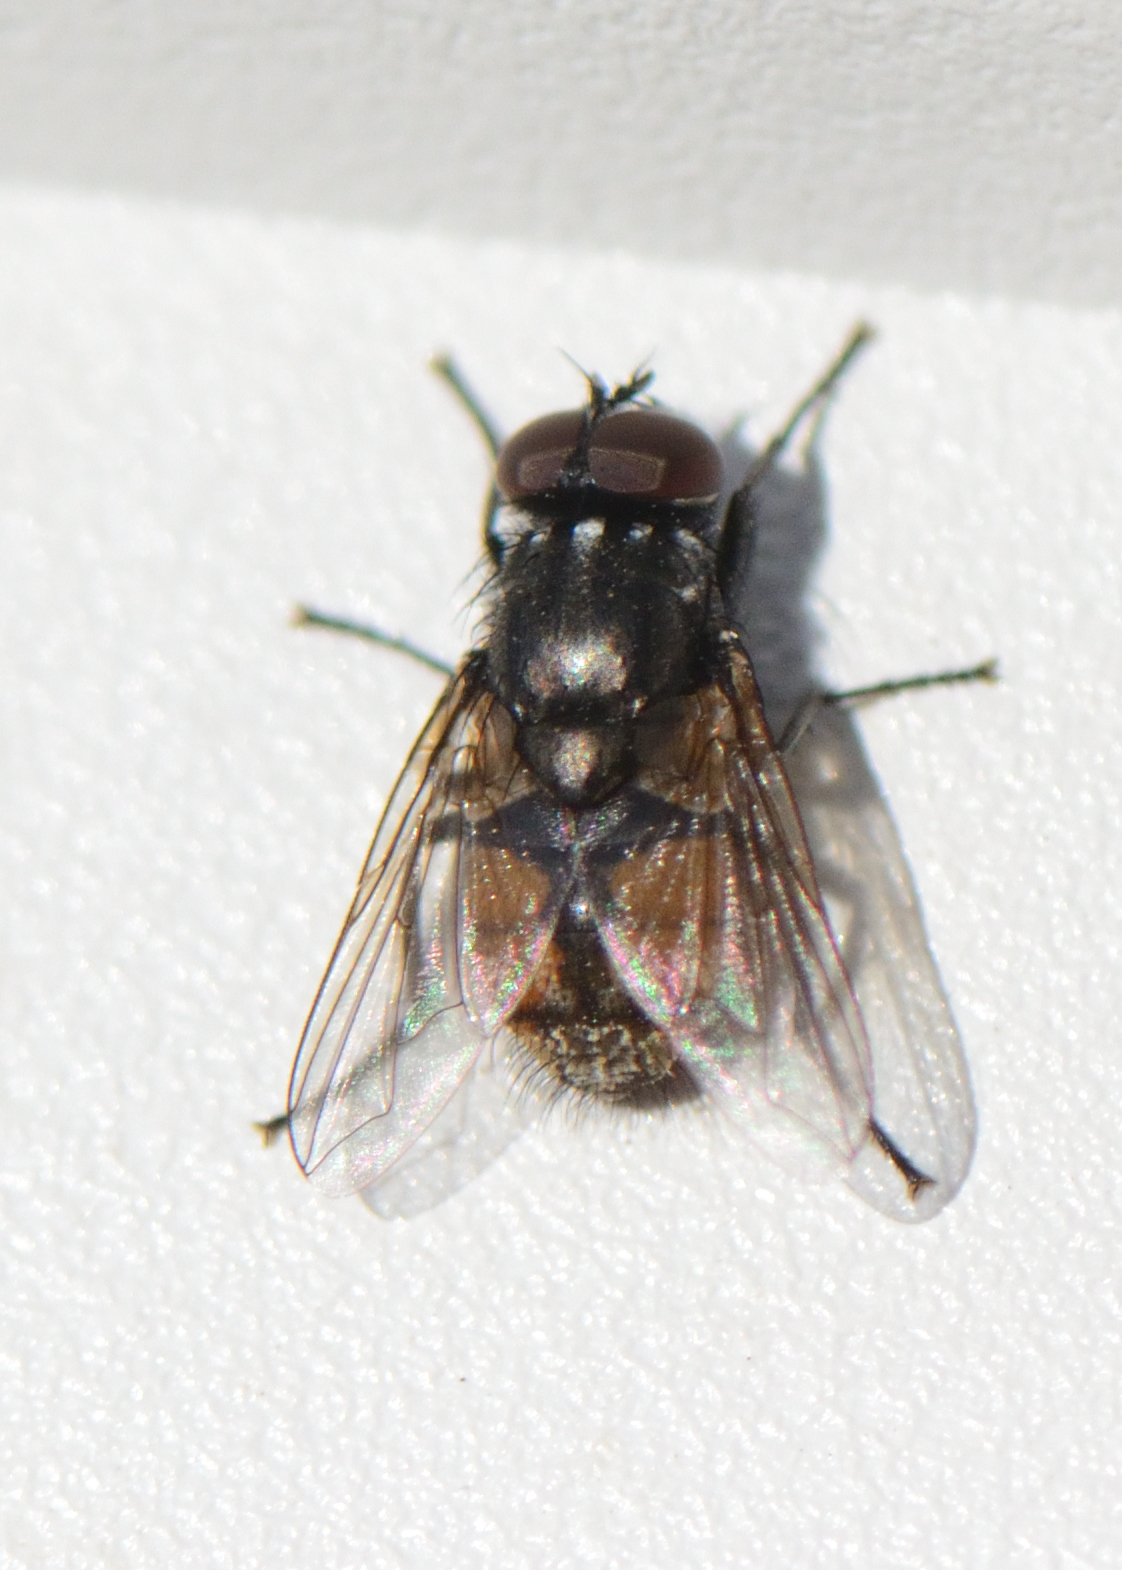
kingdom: Animalia
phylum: Arthropoda
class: Insecta
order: Diptera
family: Muscidae
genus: Musca
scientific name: Musca autumnalis
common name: Face fly
